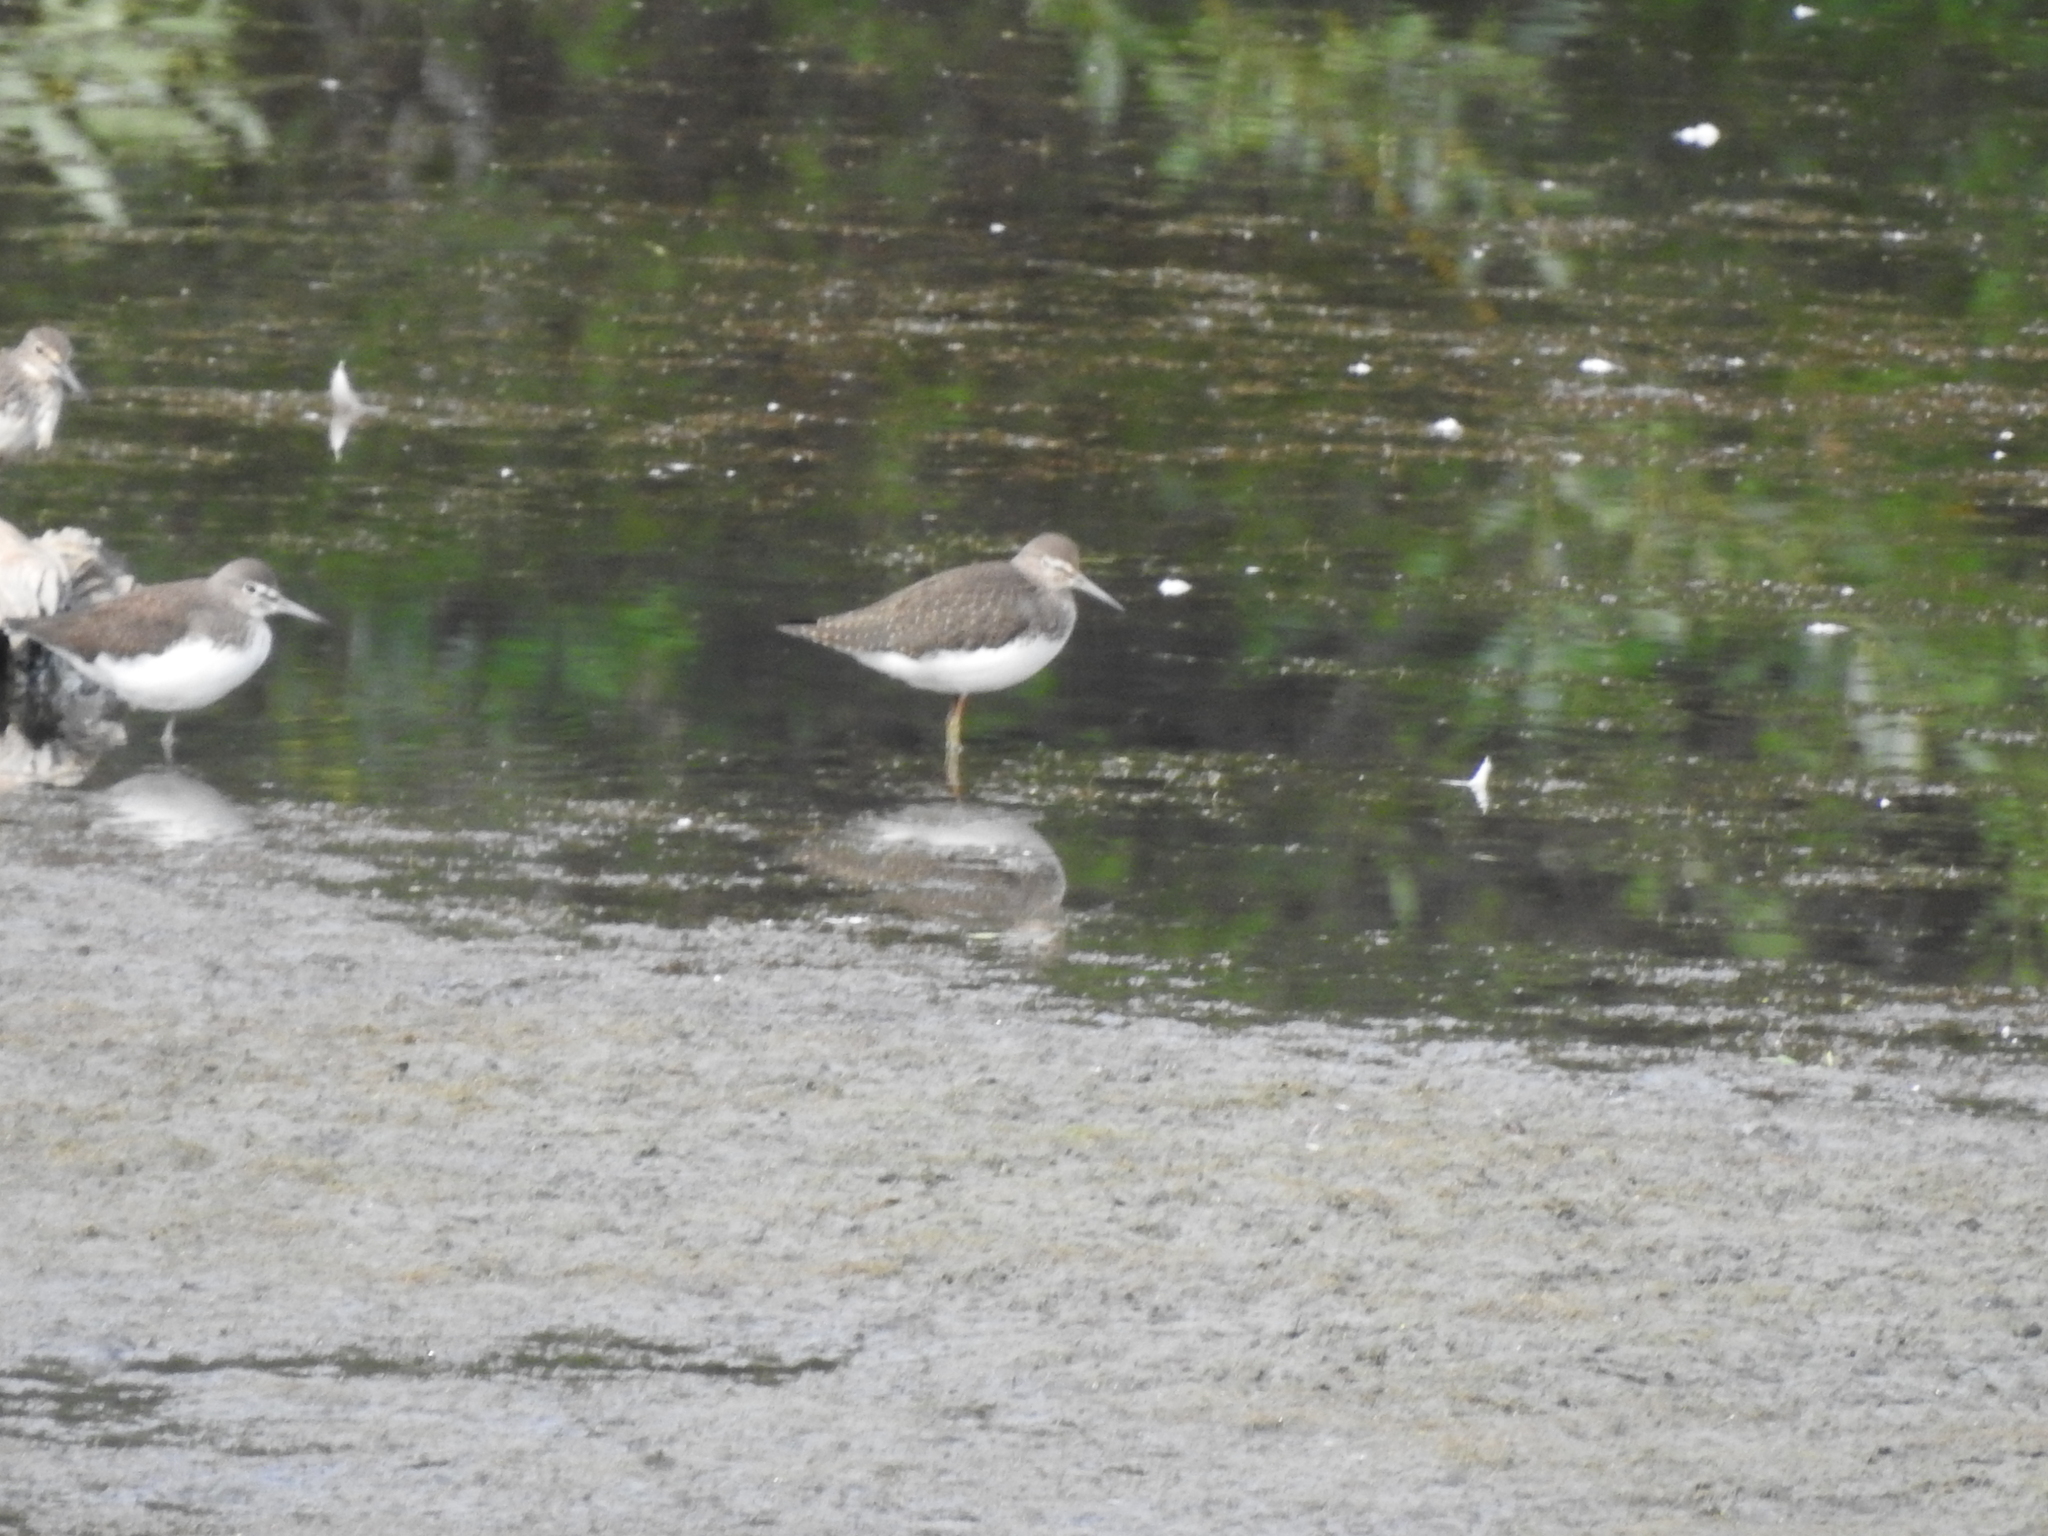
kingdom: Animalia
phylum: Chordata
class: Aves
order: Charadriiformes
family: Scolopacidae
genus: Tringa
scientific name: Tringa ochropus
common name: Green sandpiper
